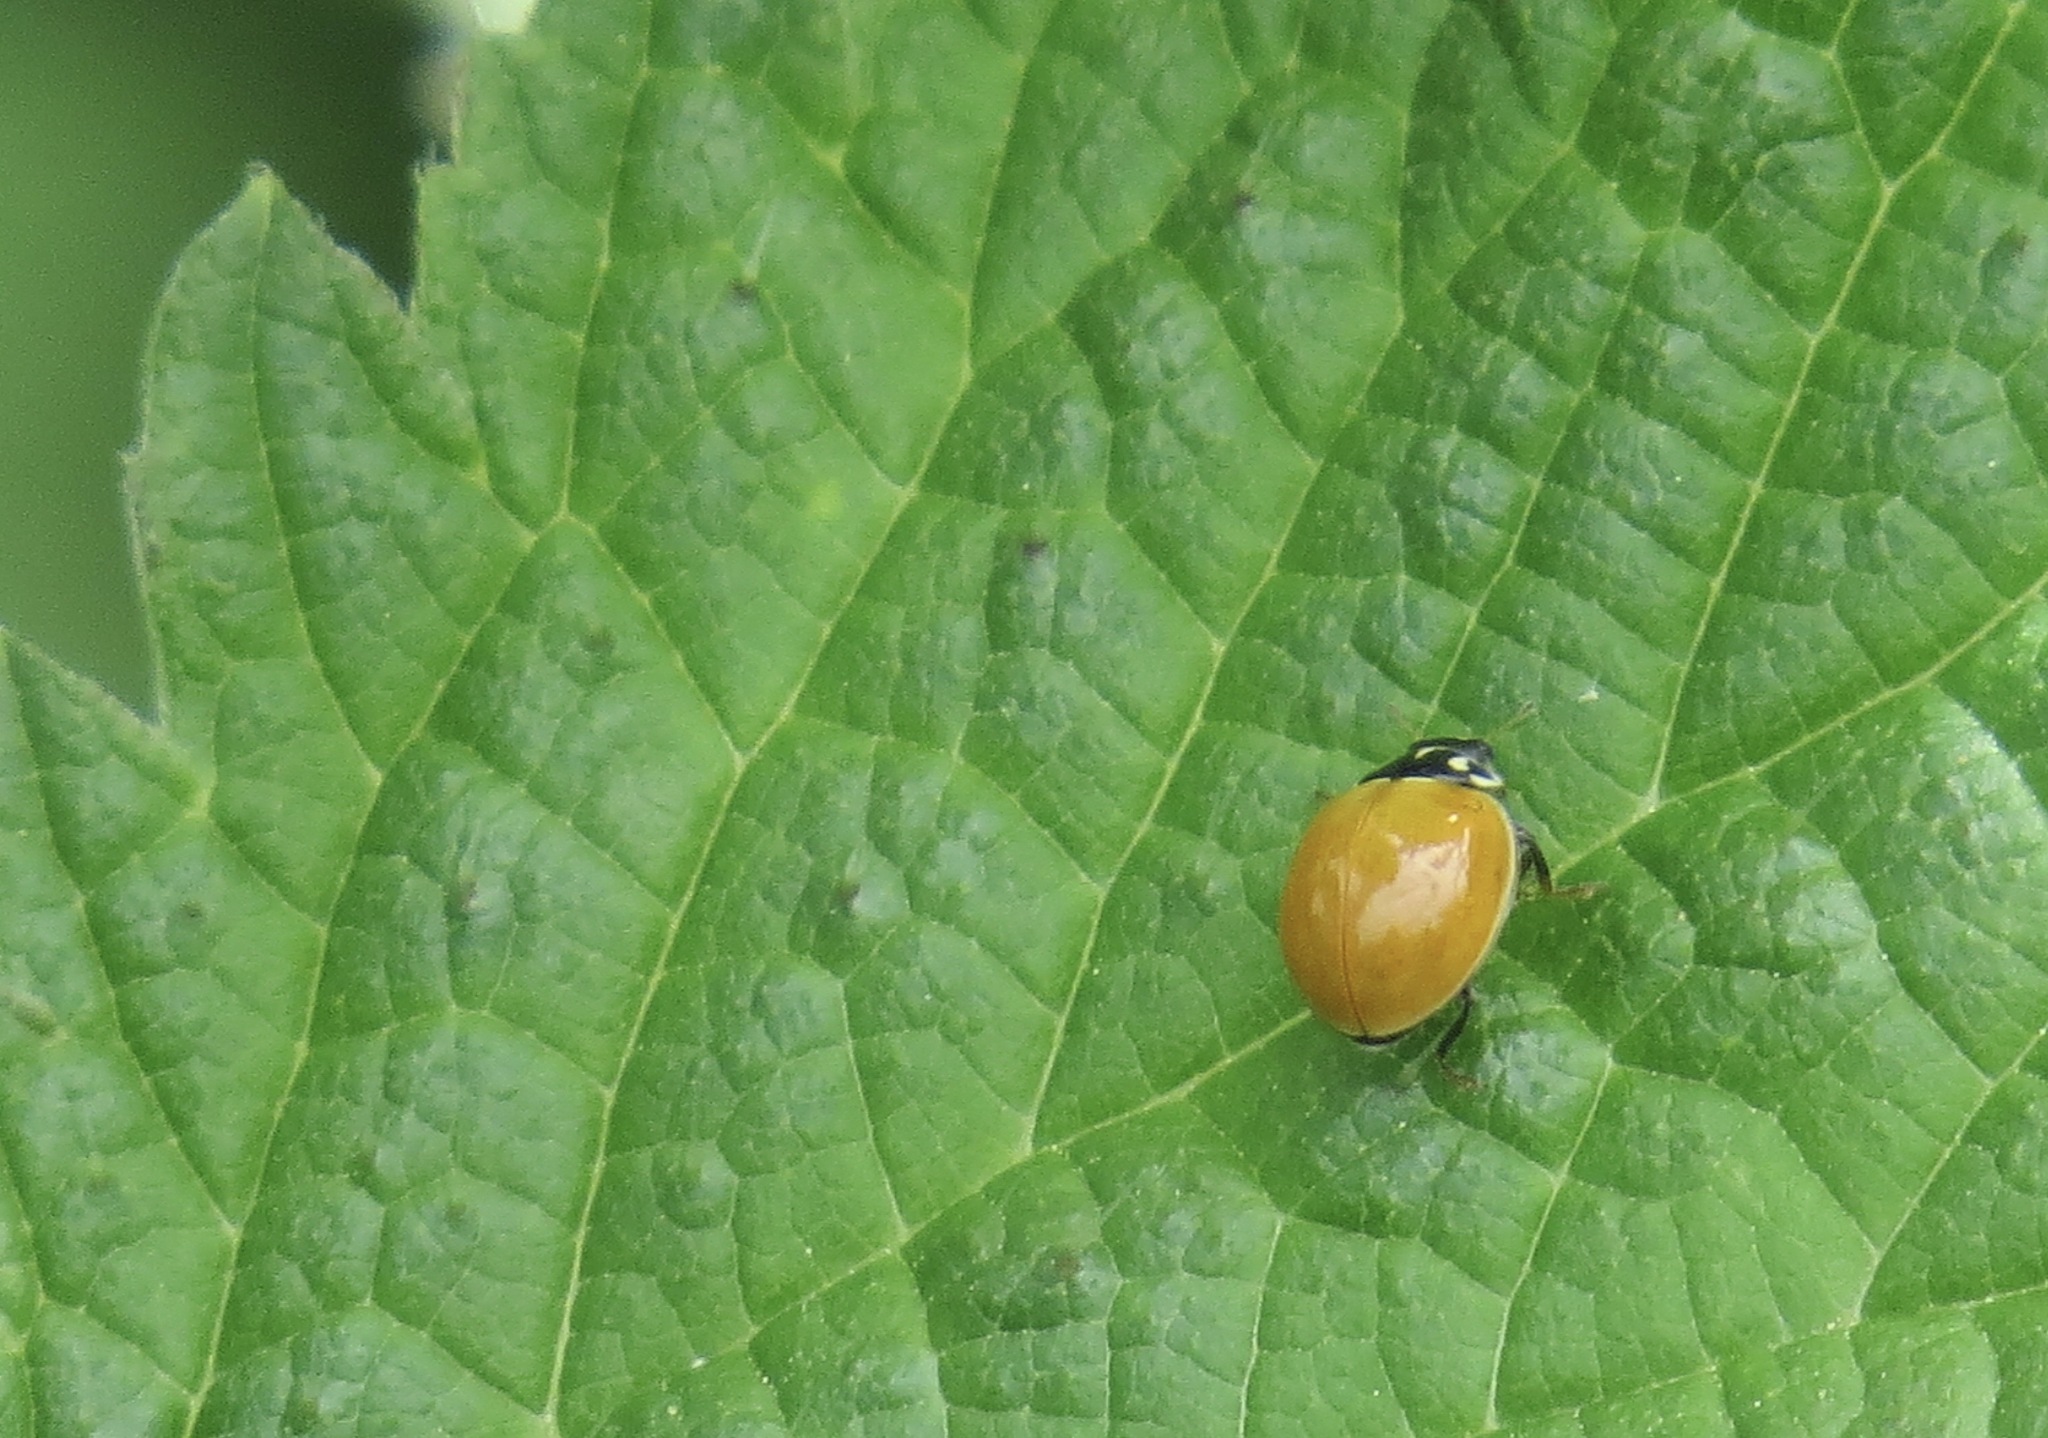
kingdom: Animalia
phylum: Arthropoda
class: Insecta
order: Coleoptera
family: Coccinellidae
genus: Cycloneda
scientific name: Cycloneda polita
